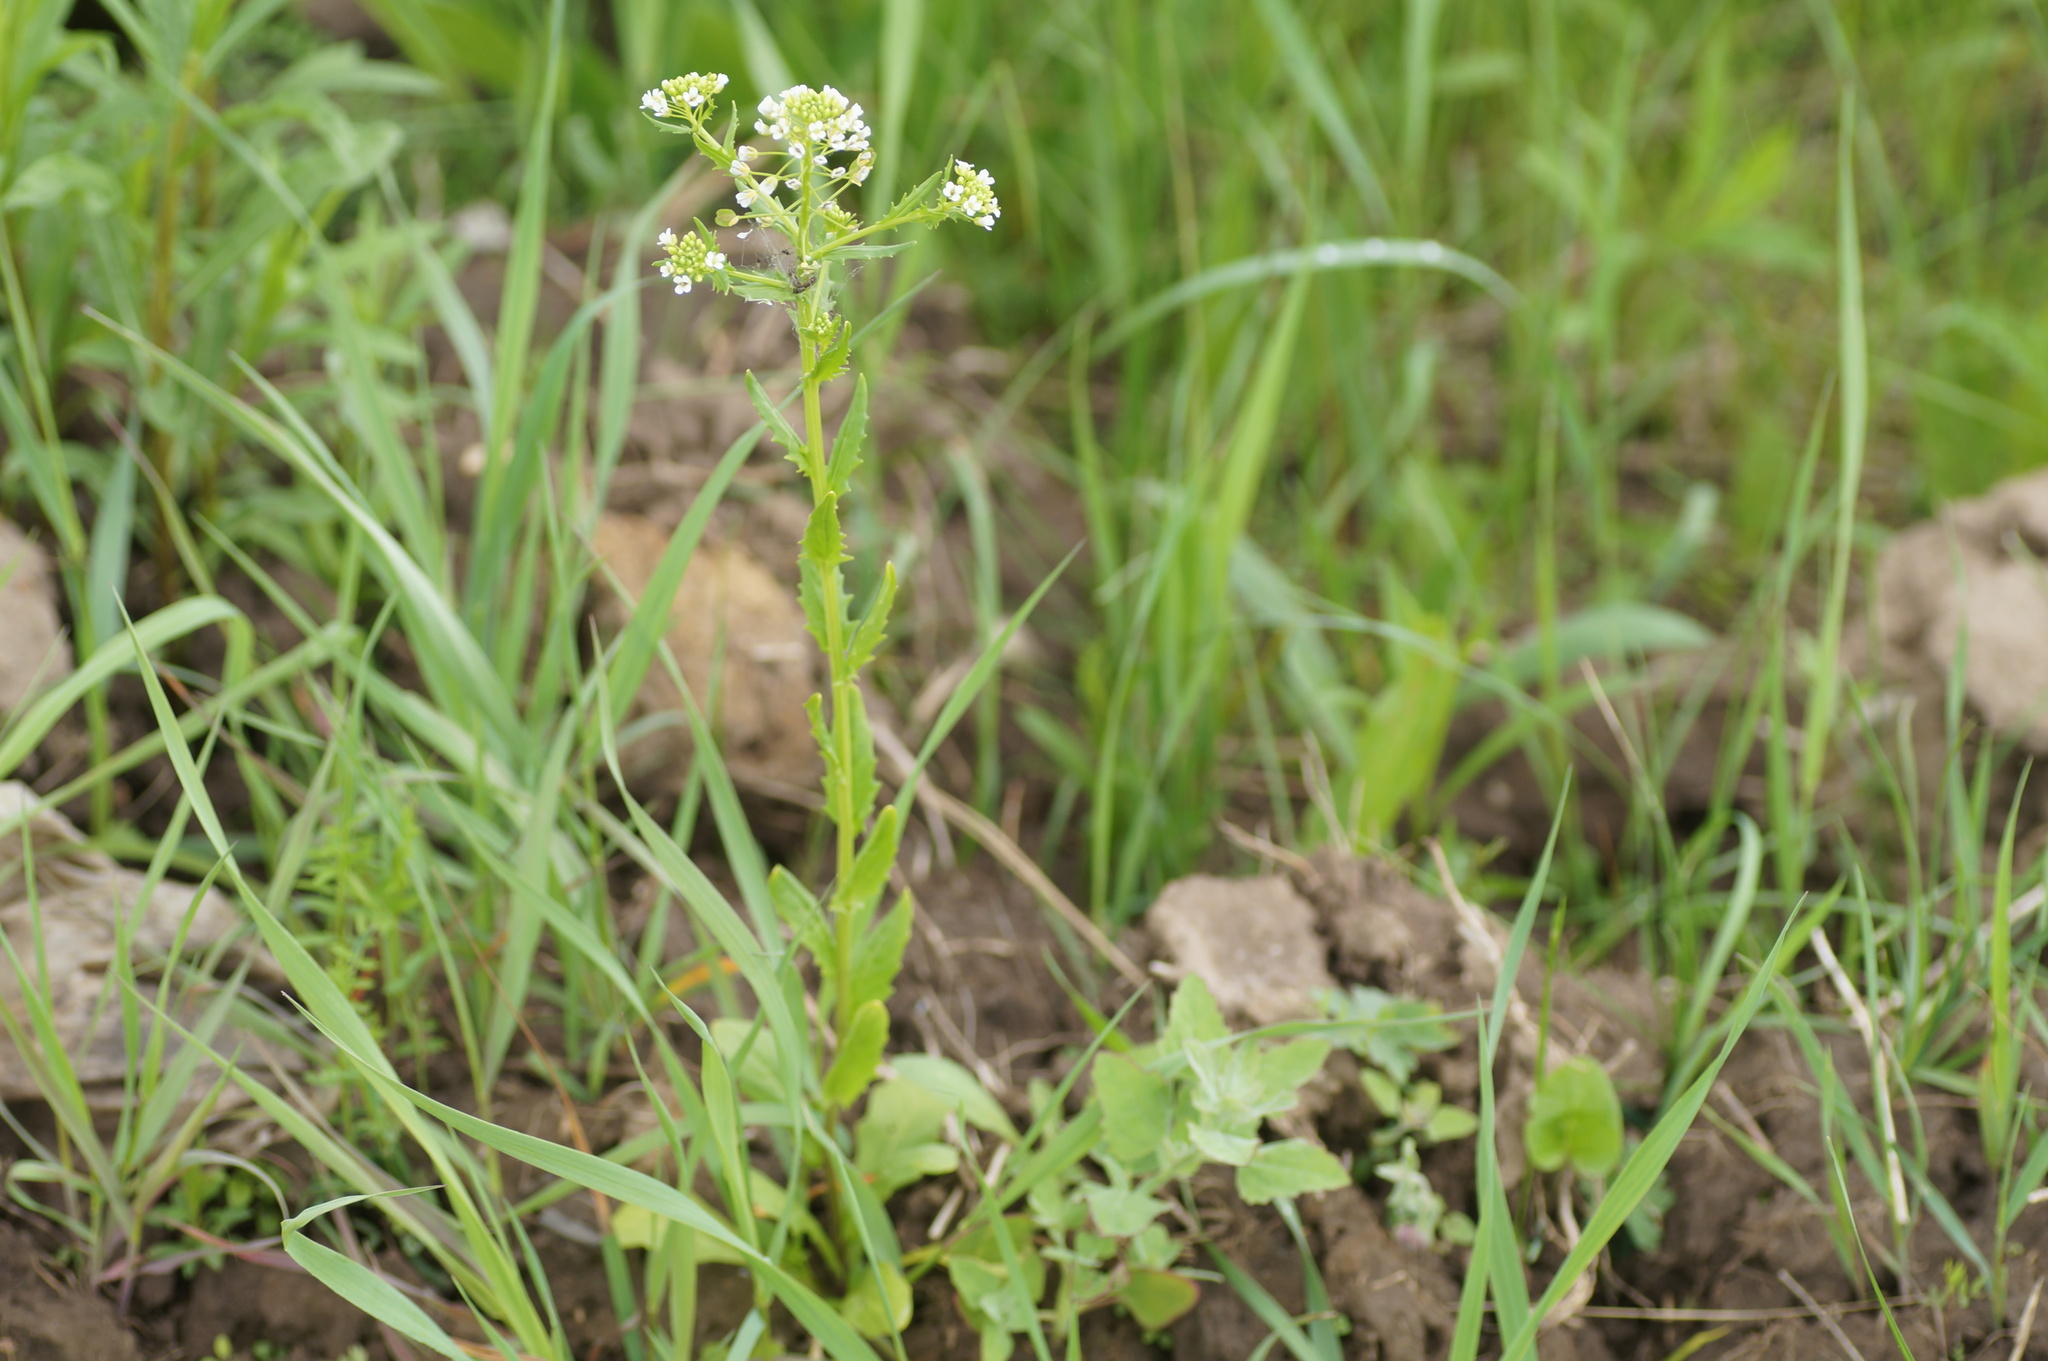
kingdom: Plantae
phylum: Tracheophyta
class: Magnoliopsida
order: Brassicales
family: Brassicaceae
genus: Thlaspi
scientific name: Thlaspi arvense
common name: Field pennycress
